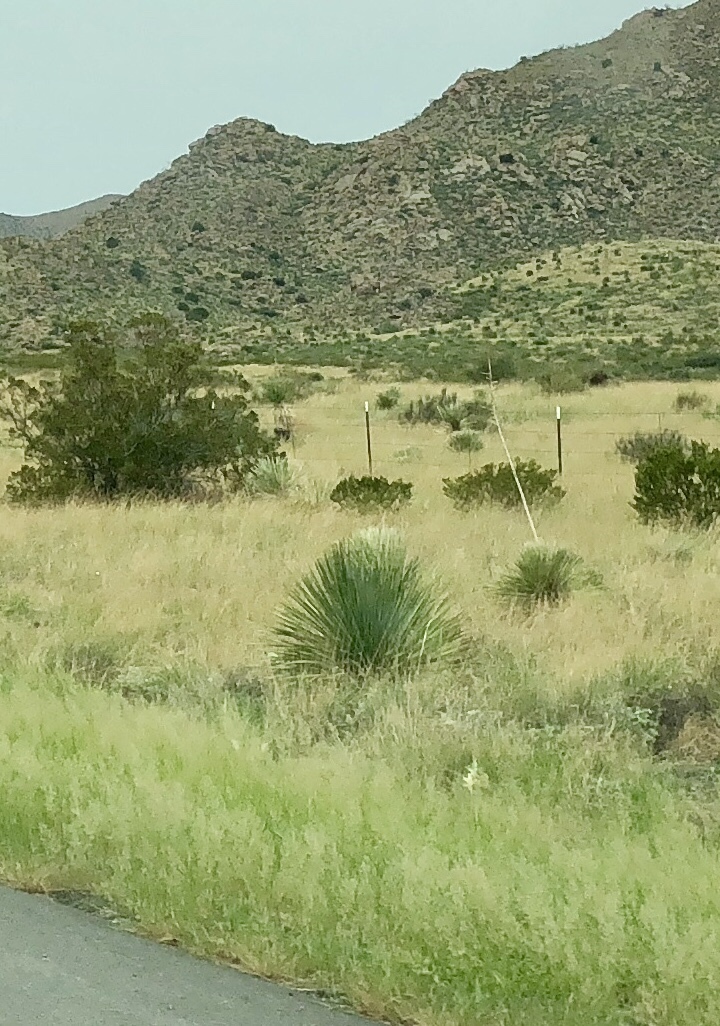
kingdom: Plantae
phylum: Tracheophyta
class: Liliopsida
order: Asparagales
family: Asparagaceae
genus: Dasylirion
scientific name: Dasylirion wheeleri
